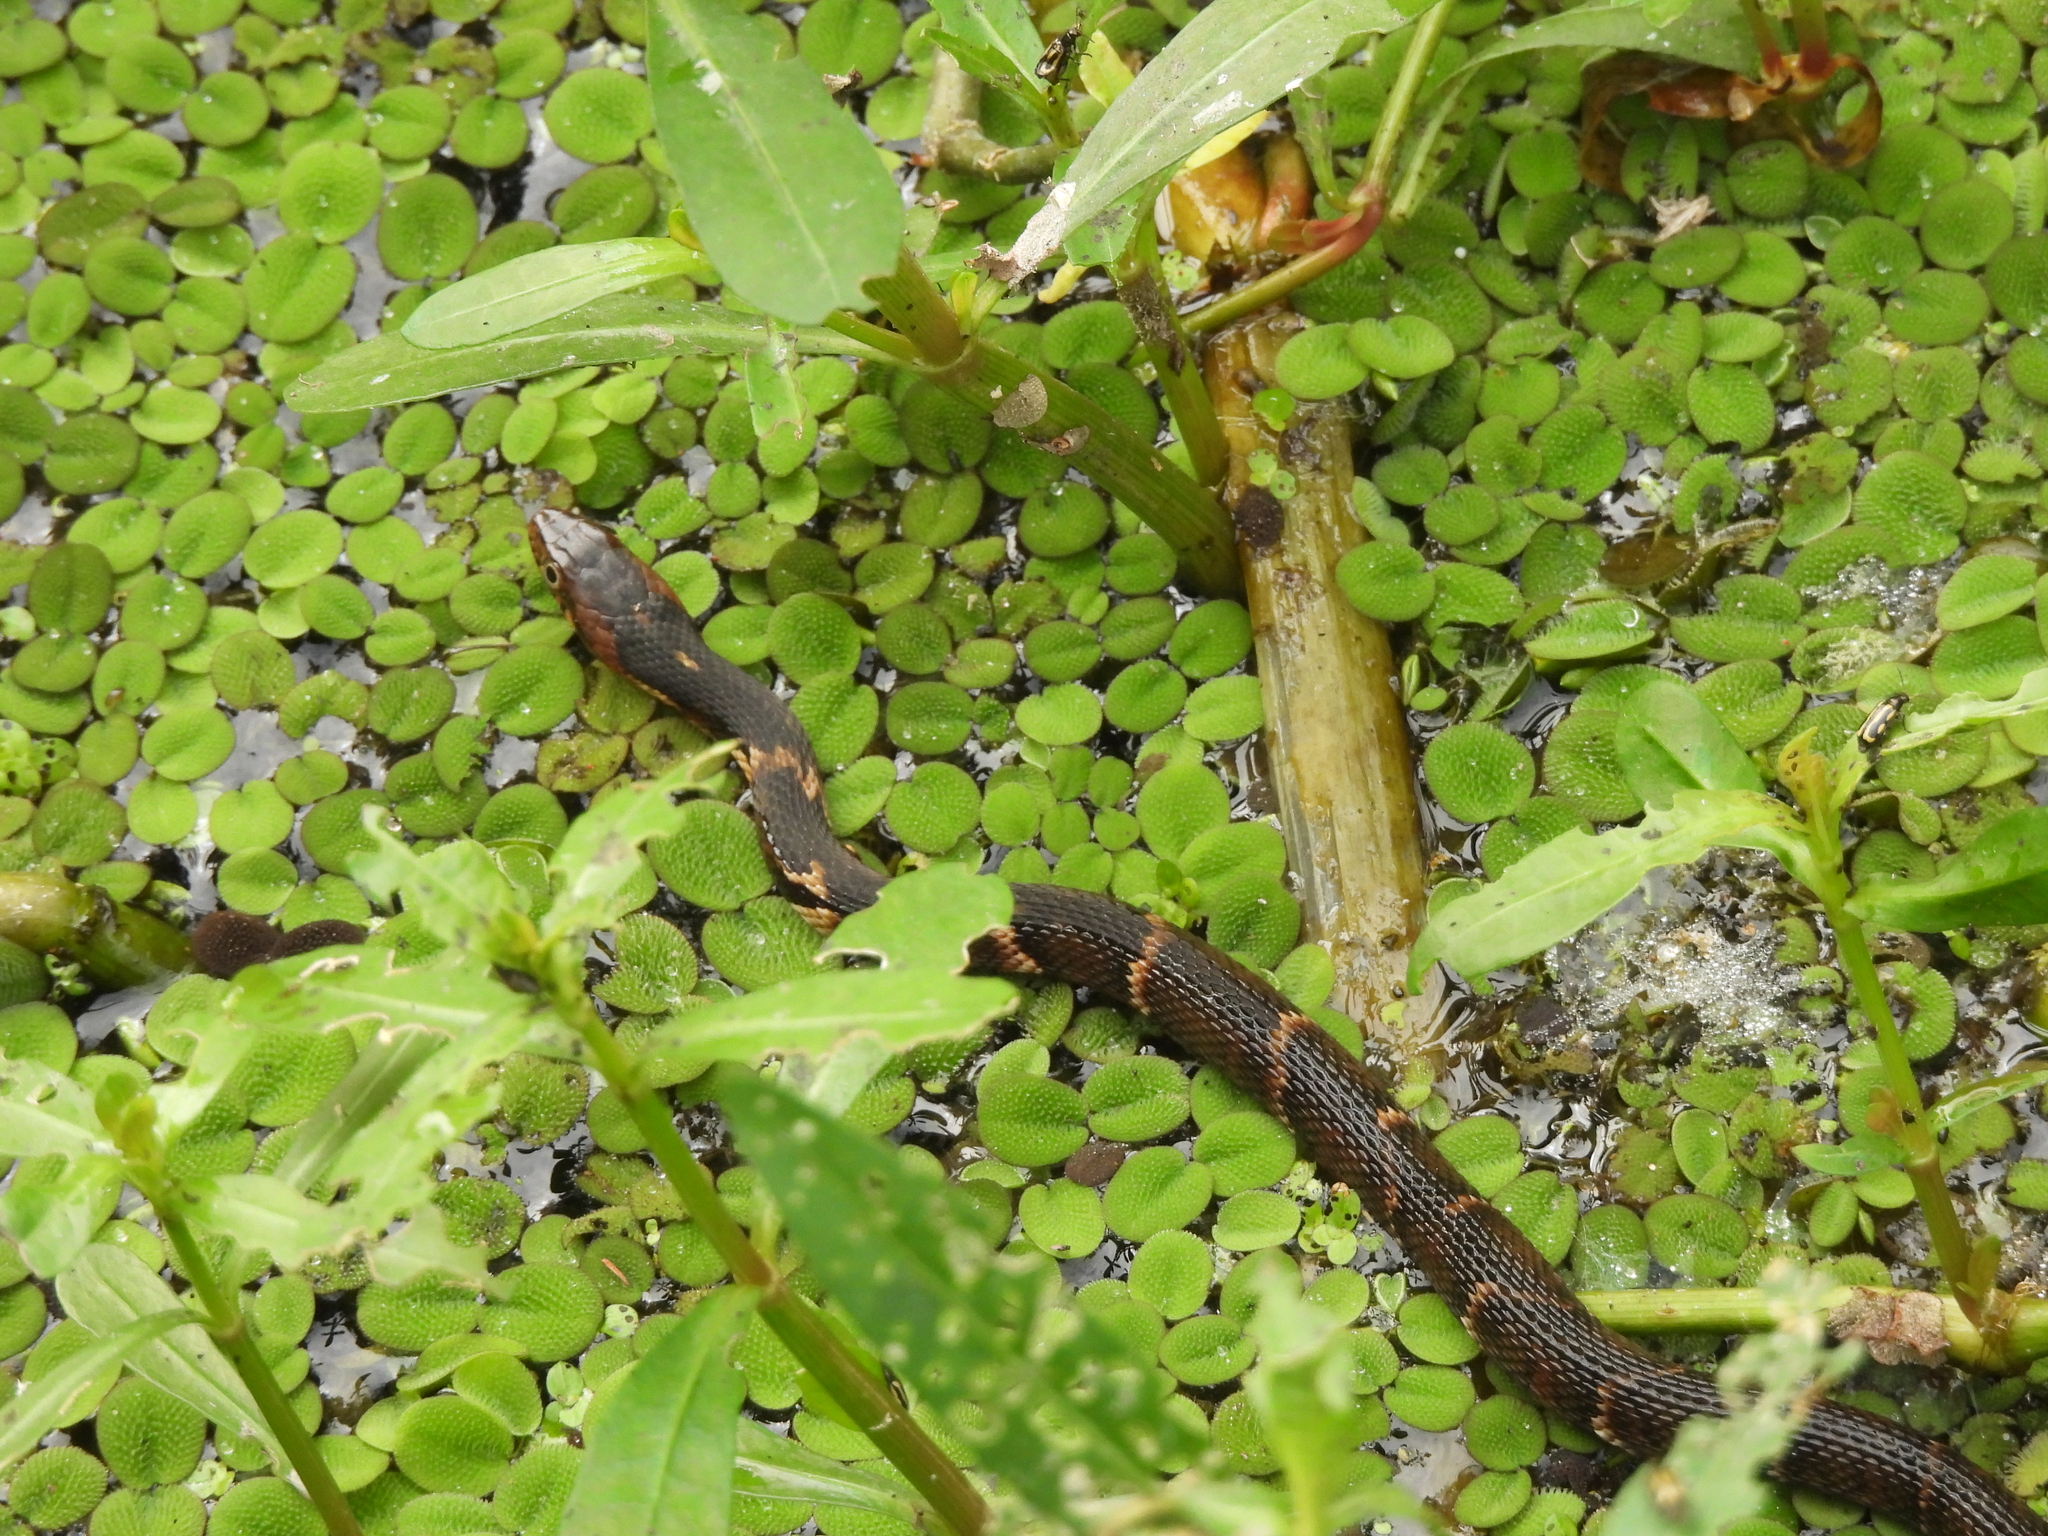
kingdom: Animalia
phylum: Chordata
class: Squamata
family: Colubridae
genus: Nerodia
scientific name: Nerodia fasciata
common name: Southern water snake
